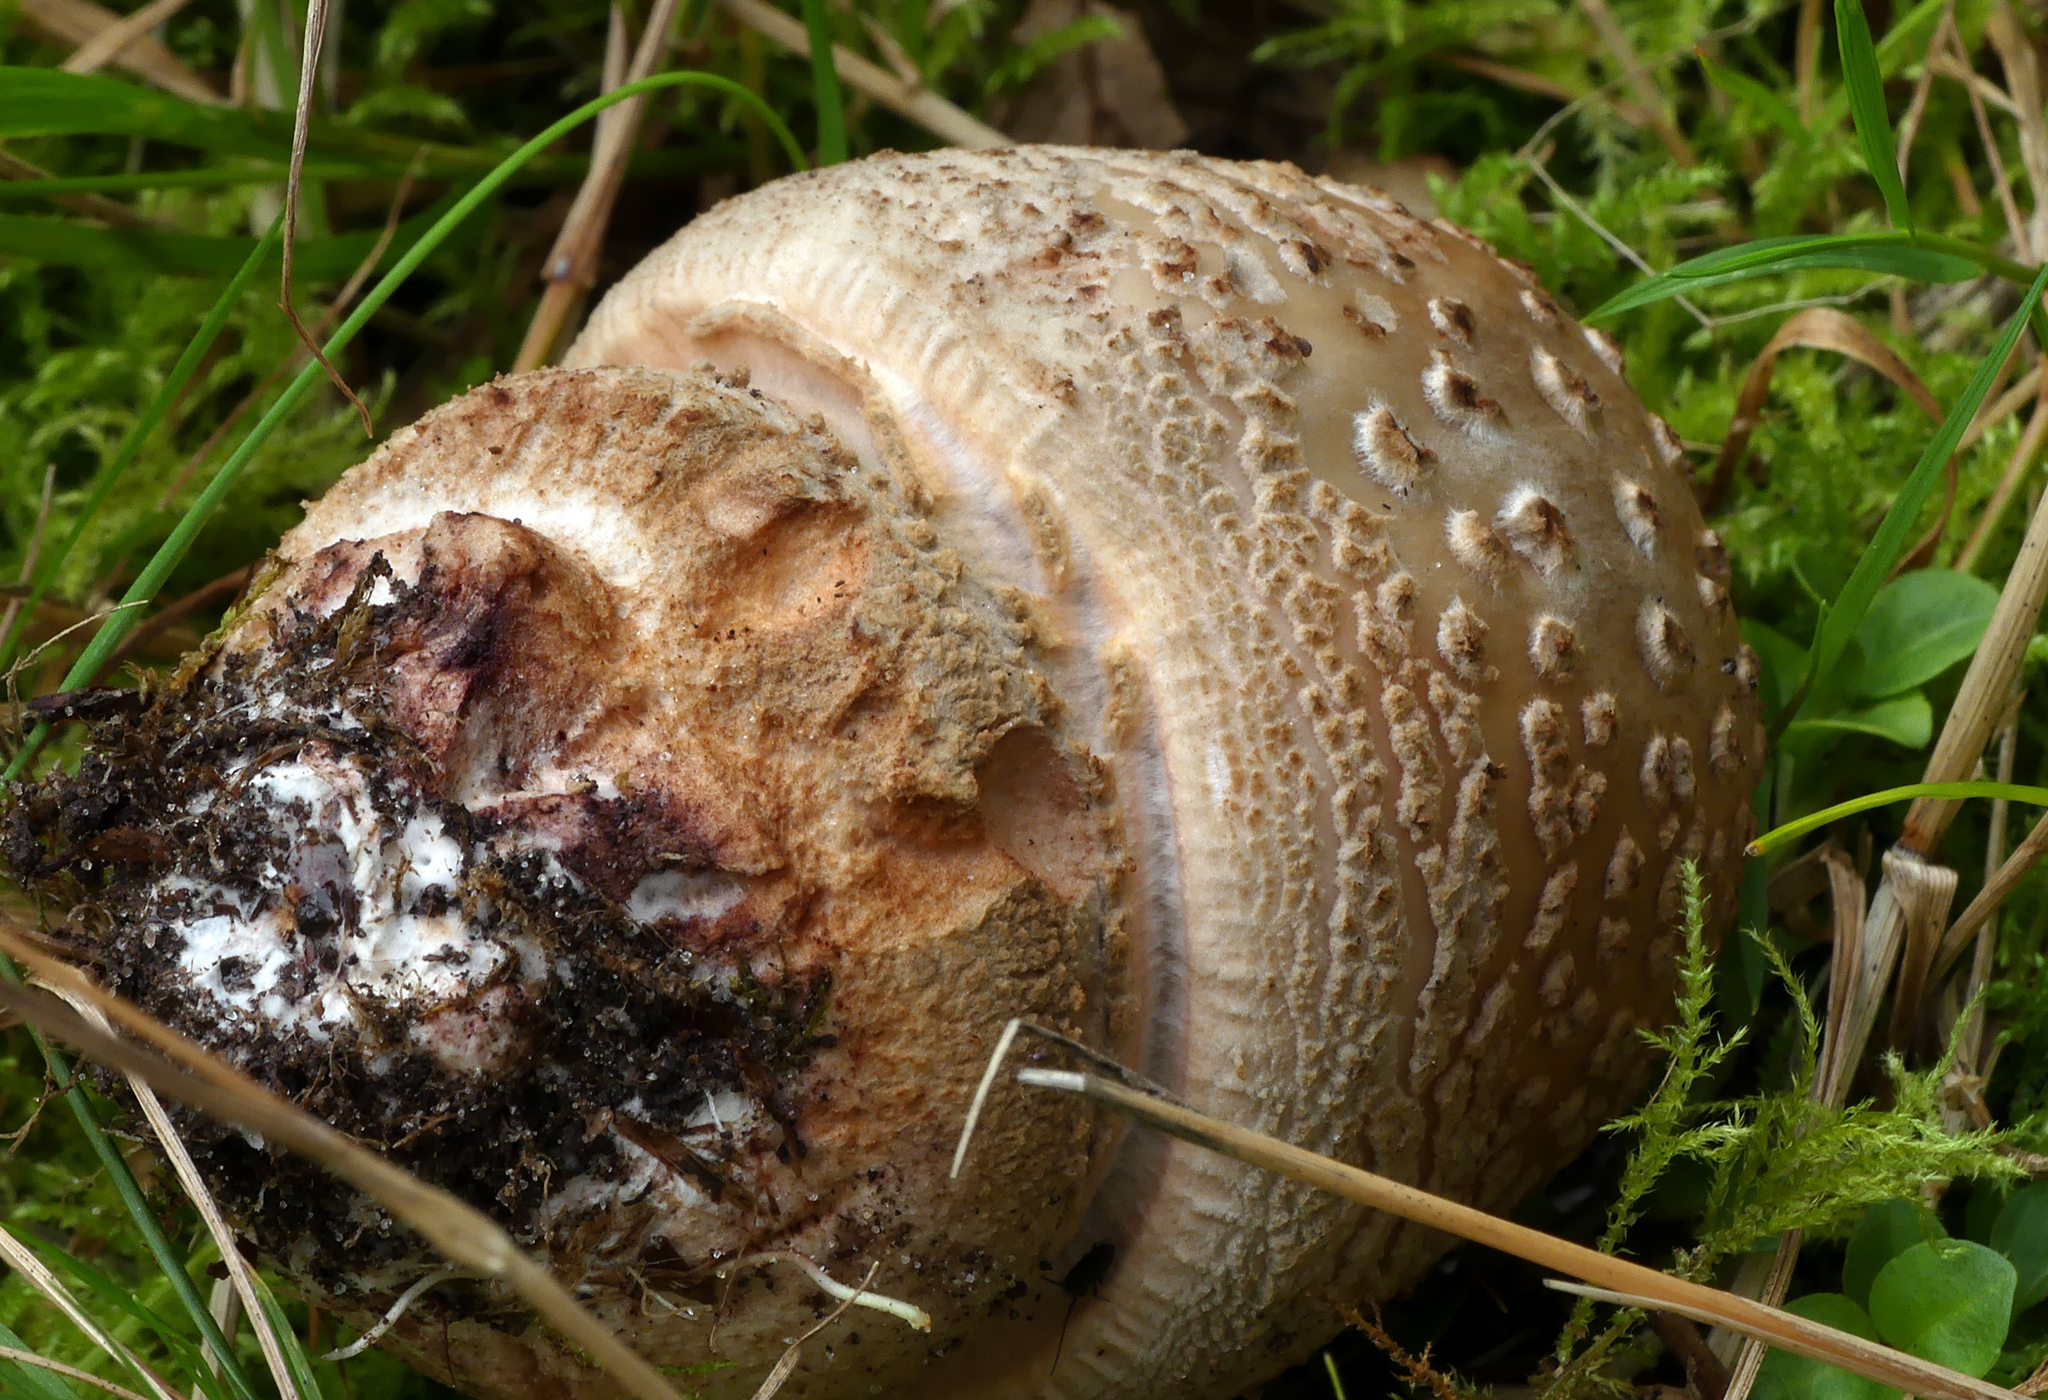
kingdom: Fungi
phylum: Basidiomycota
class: Agaricomycetes
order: Agaricales
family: Amanitaceae
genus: Amanita
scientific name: Amanita rubescens
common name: Blusher
